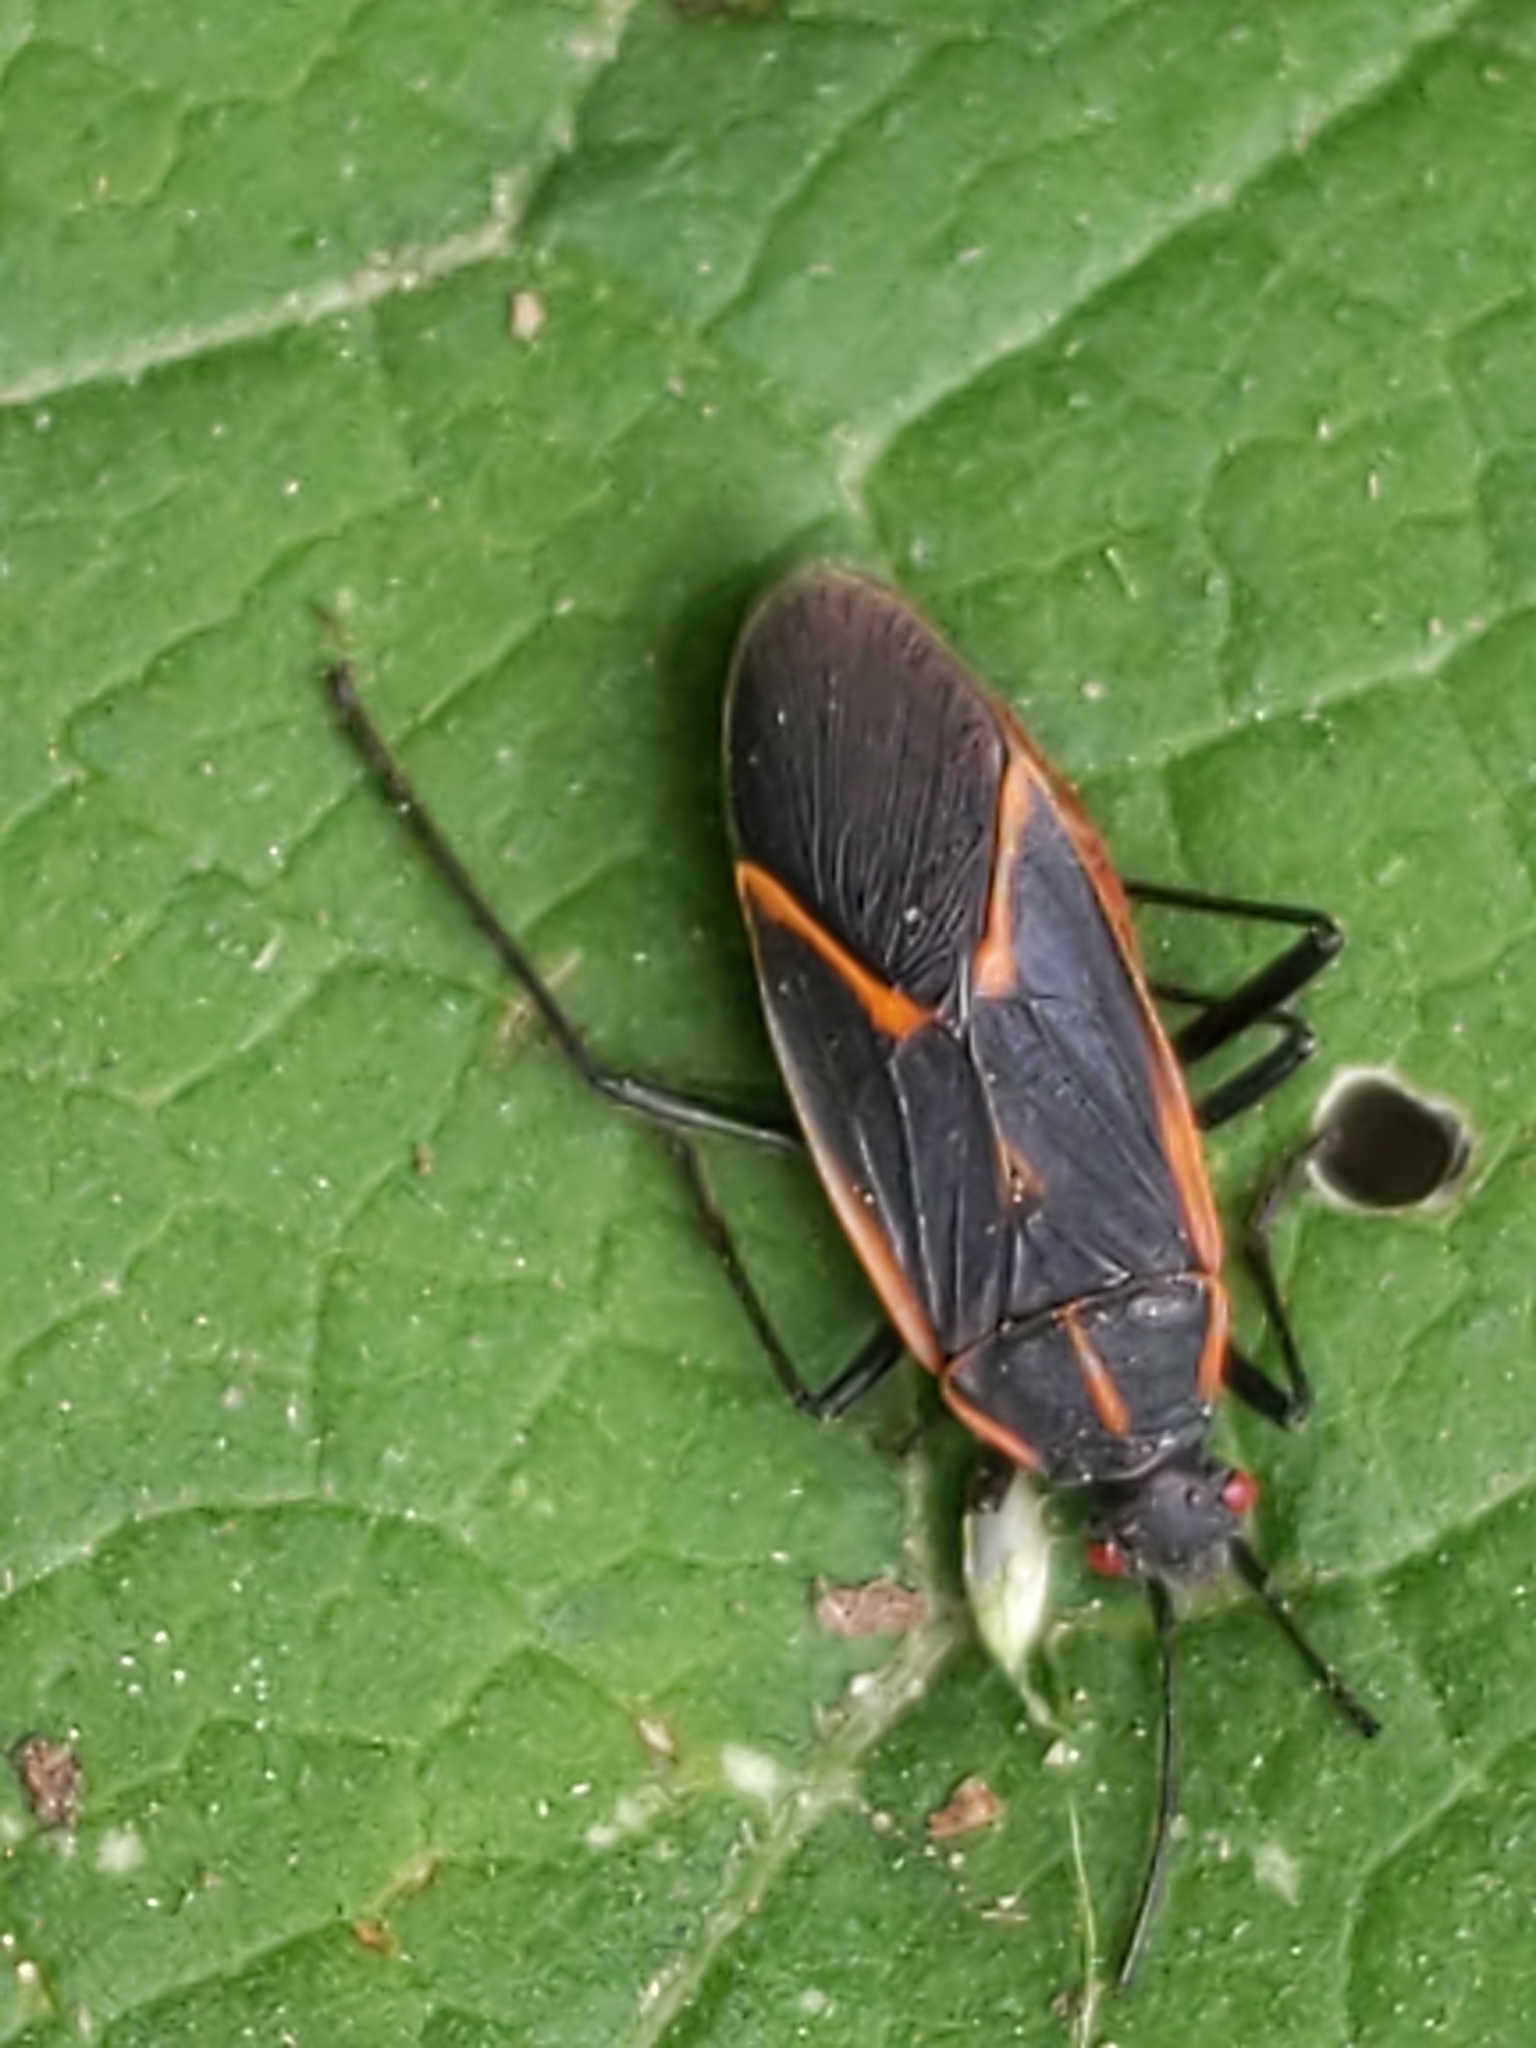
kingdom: Animalia
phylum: Arthropoda
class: Insecta
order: Hemiptera
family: Rhopalidae
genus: Boisea
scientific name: Boisea trivittata
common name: Boxelder bug
